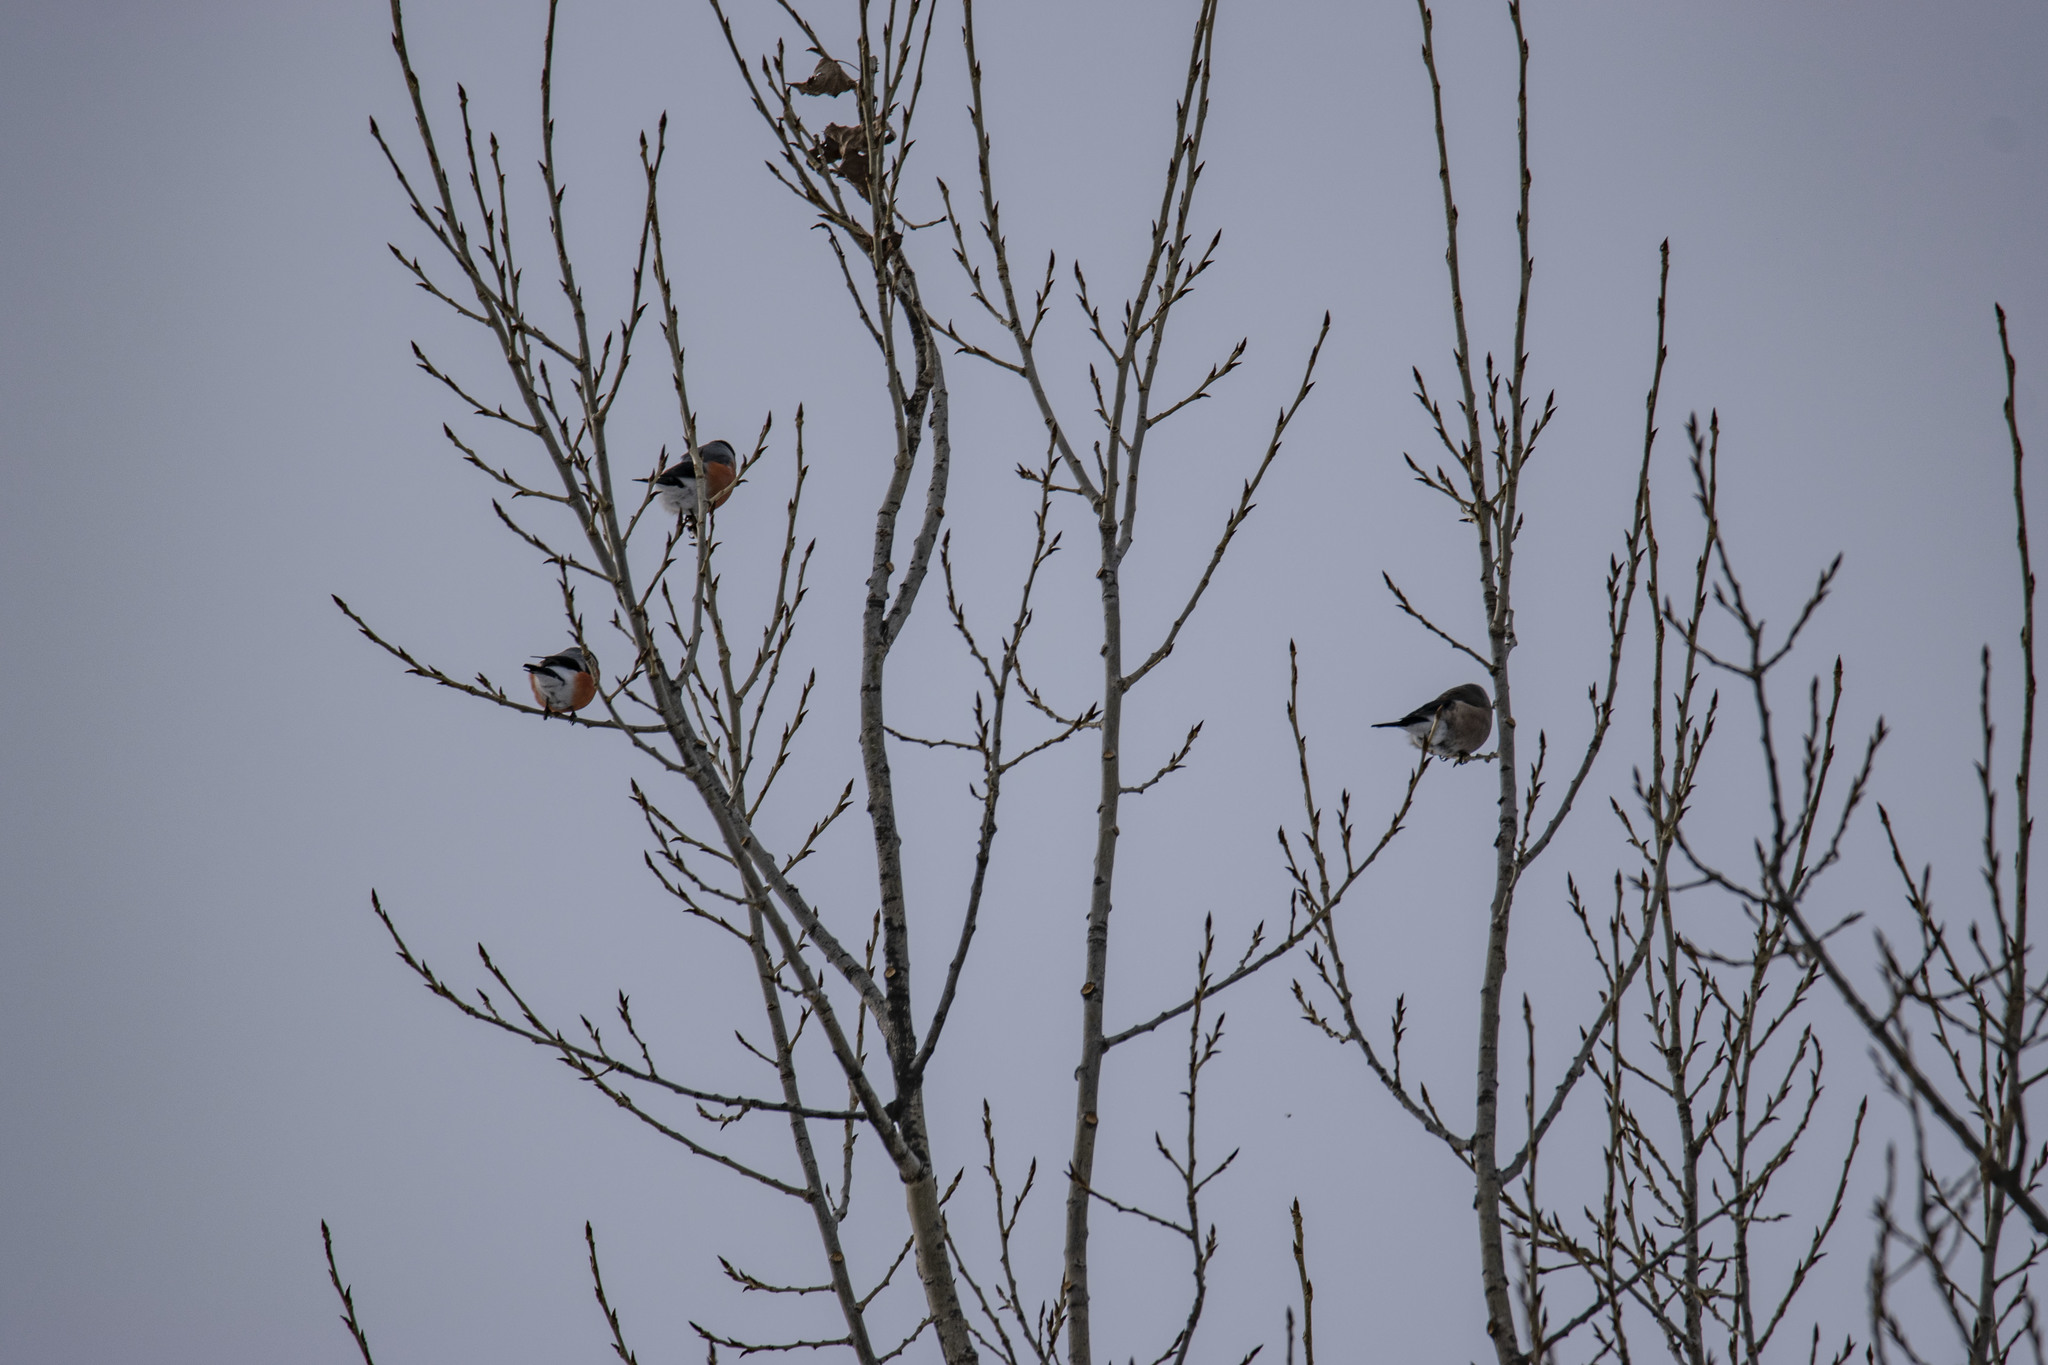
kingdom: Animalia
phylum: Chordata
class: Aves
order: Passeriformes
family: Fringillidae
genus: Pyrrhula
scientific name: Pyrrhula pyrrhula
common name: Eurasian bullfinch
